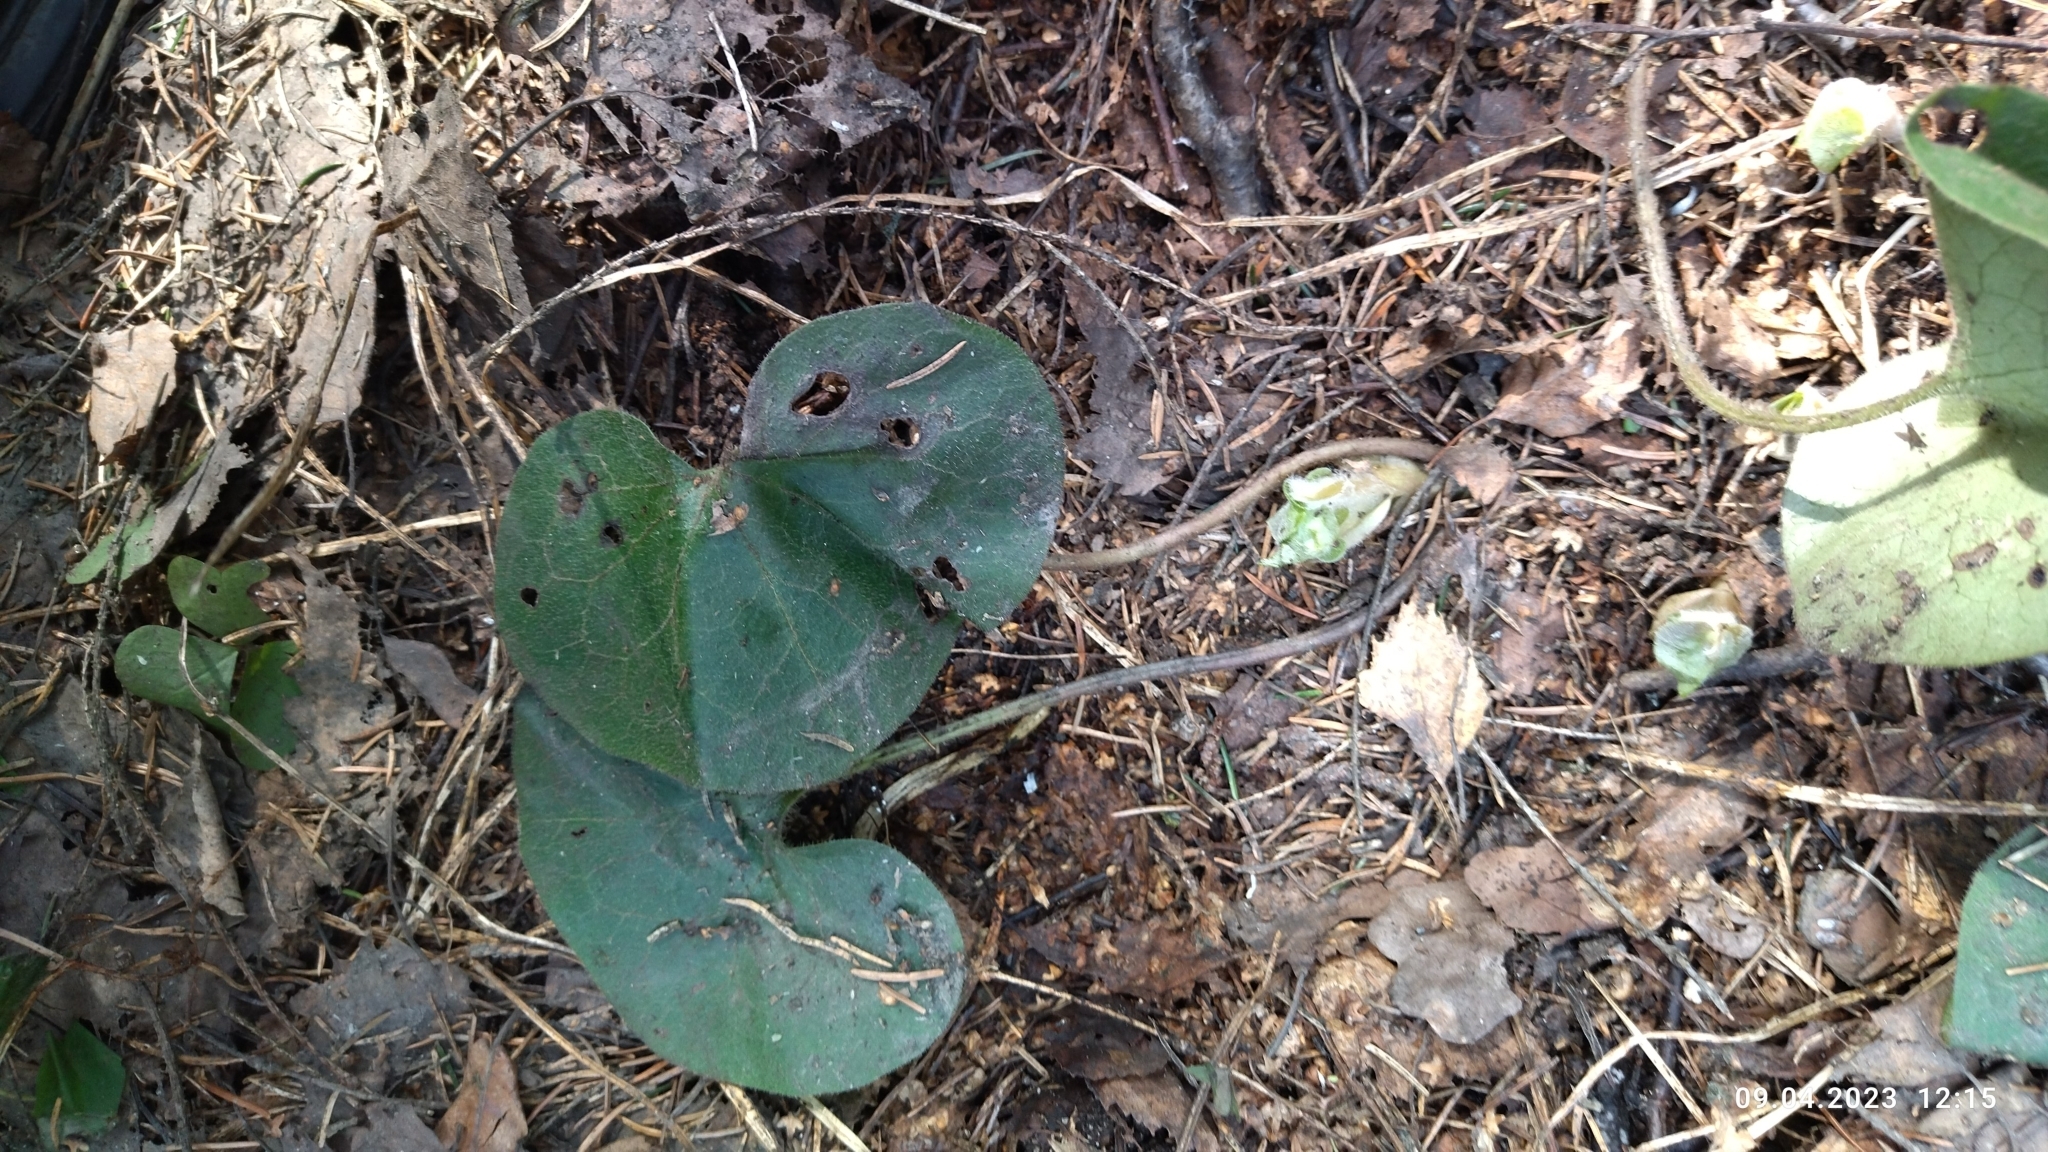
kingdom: Plantae
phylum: Tracheophyta
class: Magnoliopsida
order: Piperales
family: Aristolochiaceae
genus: Asarum
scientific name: Asarum europaeum
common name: Asarabacca
